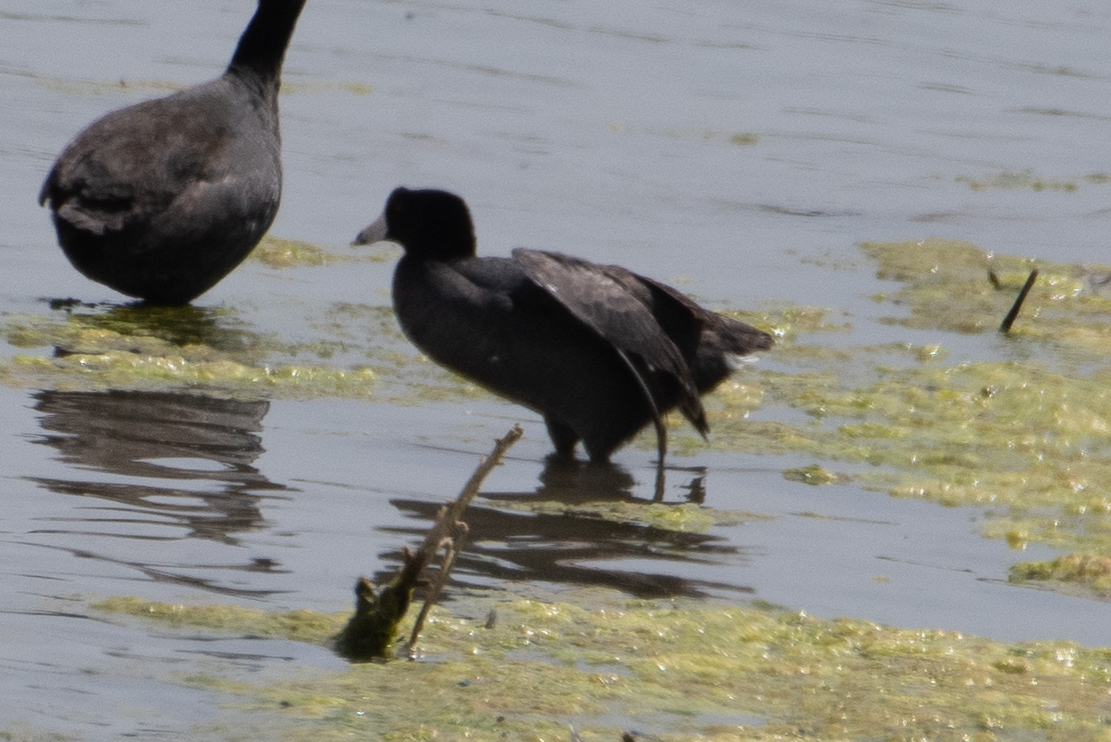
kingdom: Animalia
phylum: Chordata
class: Aves
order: Gruiformes
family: Rallidae
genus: Fulica
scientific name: Fulica americana
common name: American coot
